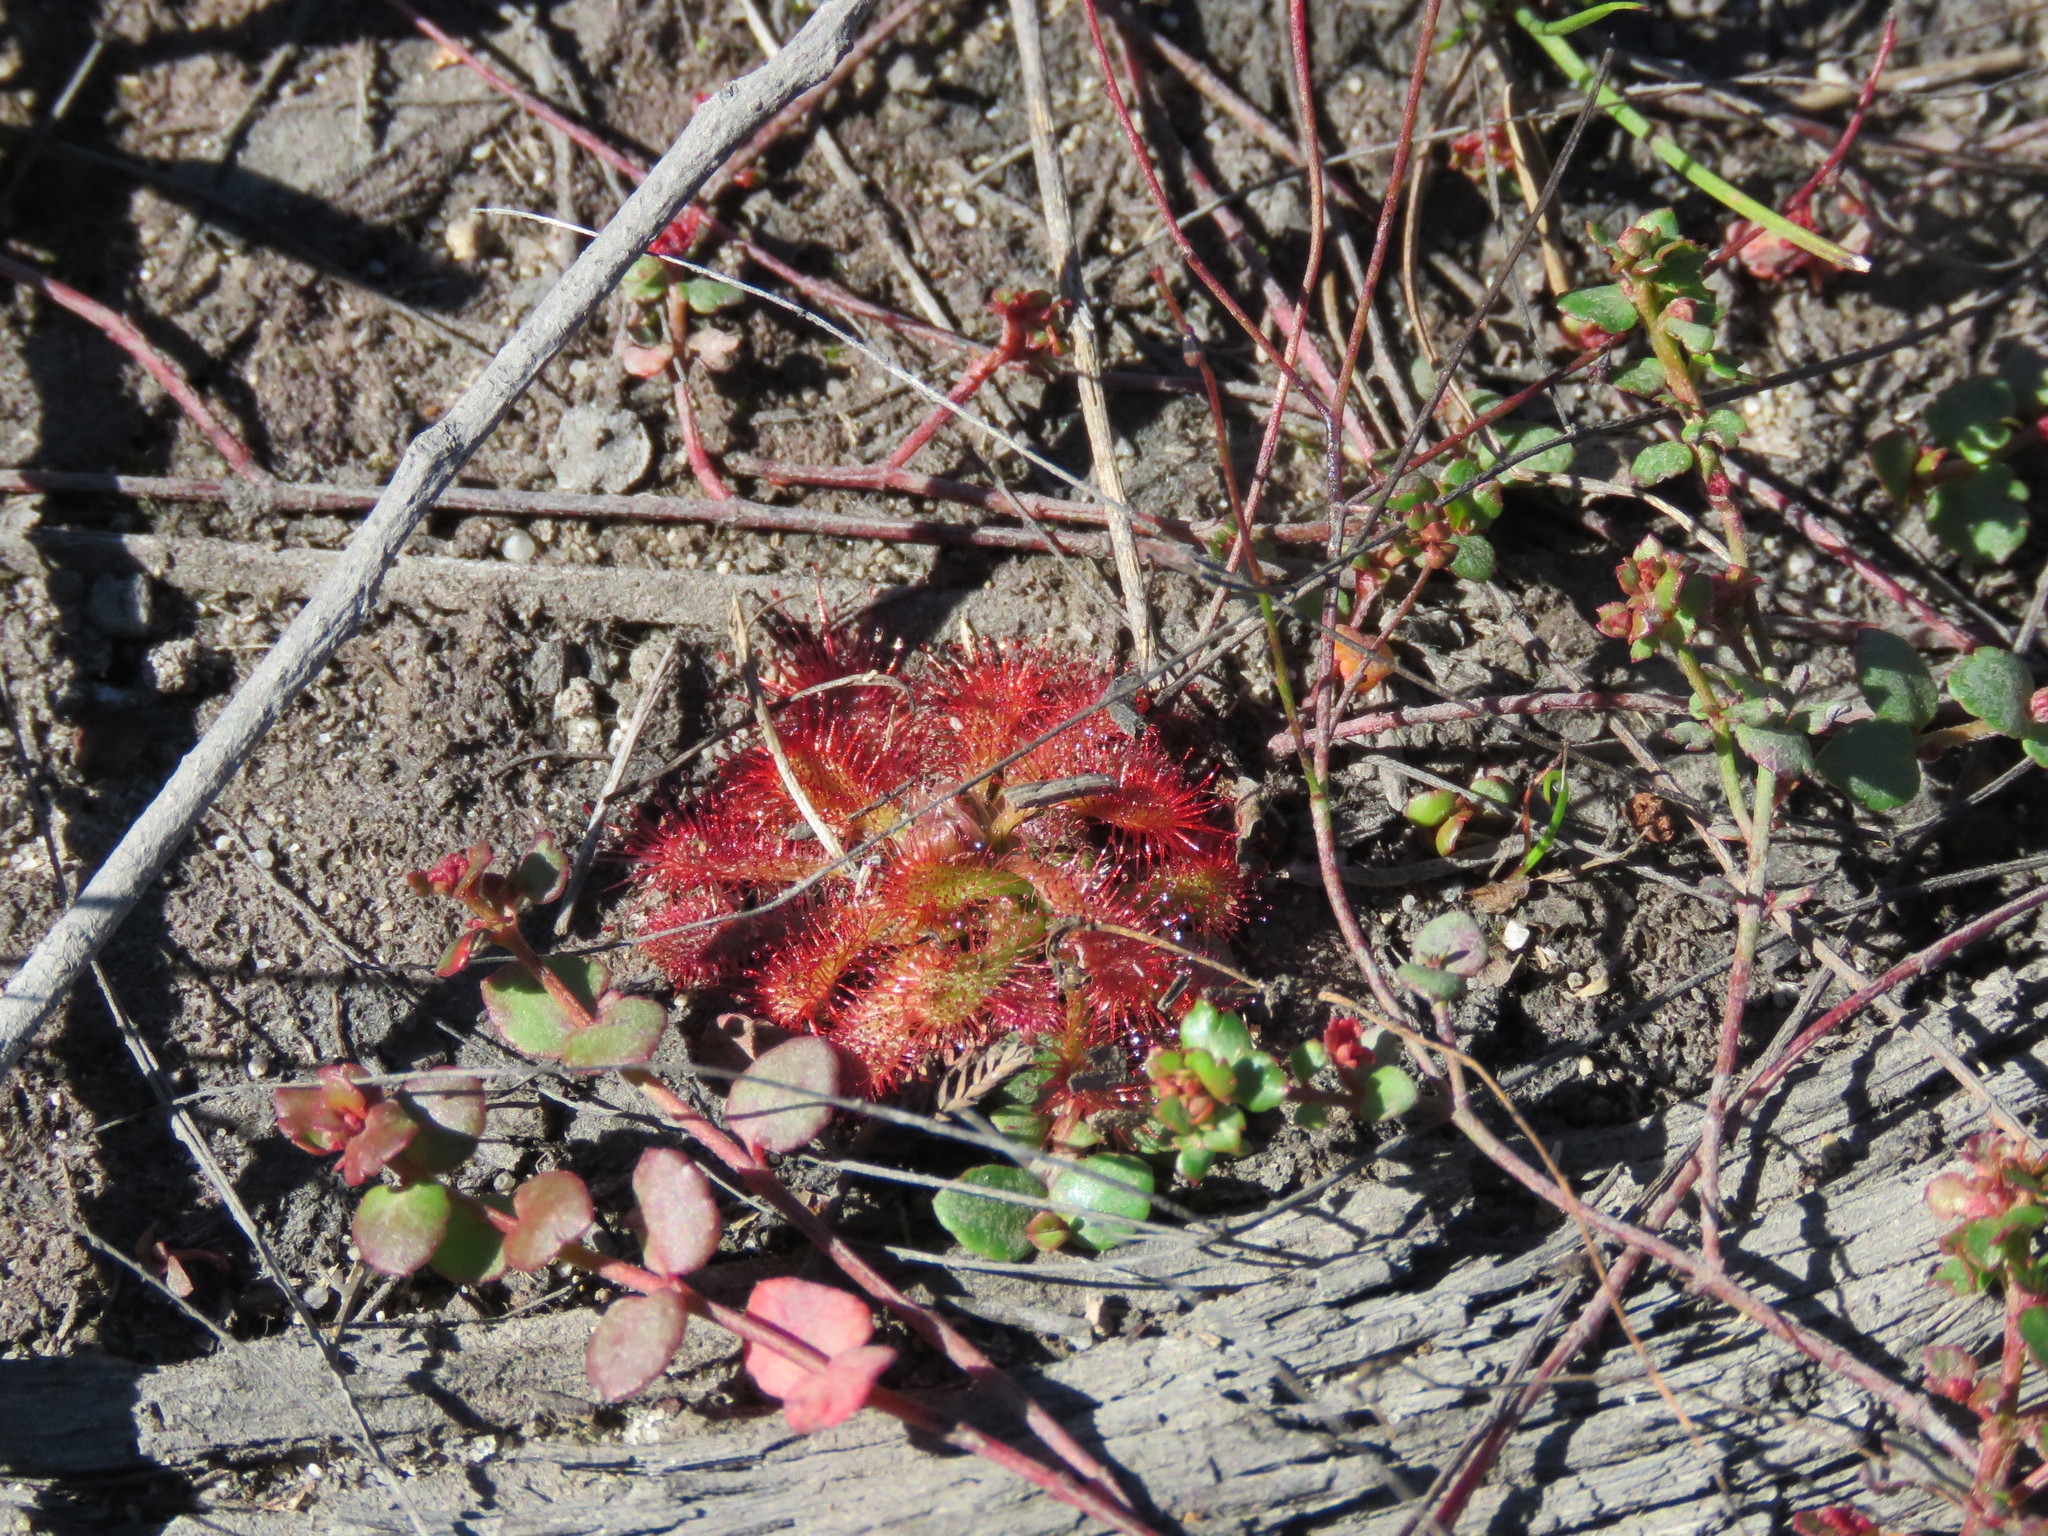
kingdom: Plantae
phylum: Tracheophyta
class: Magnoliopsida
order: Caryophyllales
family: Droseraceae
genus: Drosera
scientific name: Drosera spatulata
